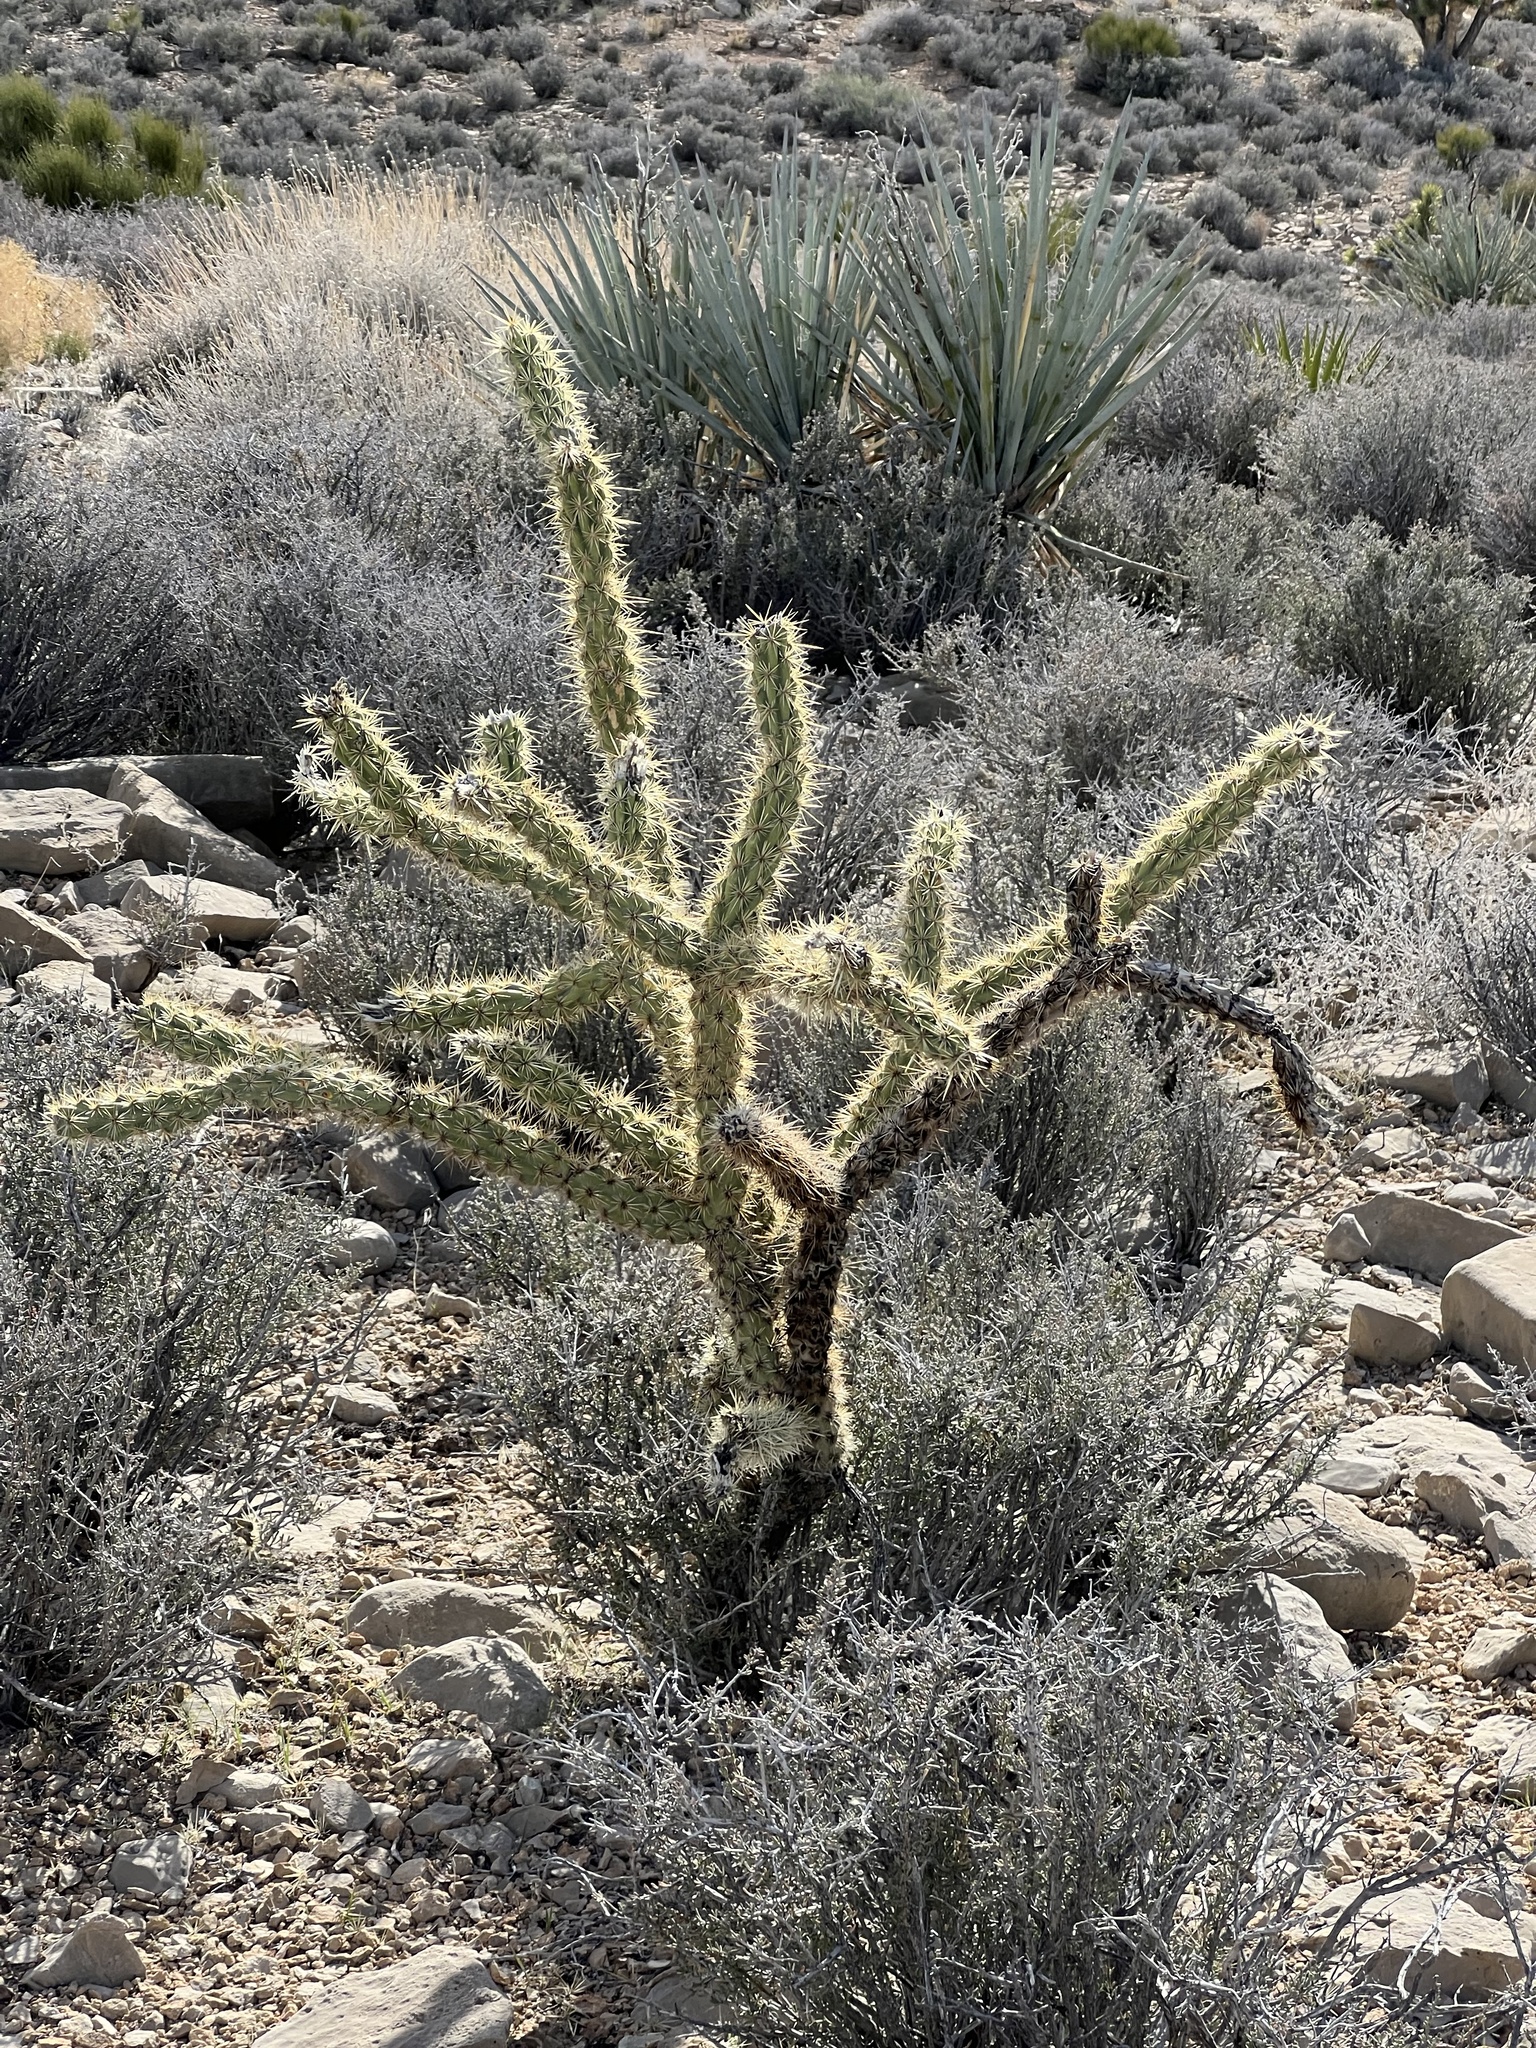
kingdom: Plantae
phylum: Tracheophyta
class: Magnoliopsida
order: Caryophyllales
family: Cactaceae
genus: Cylindropuntia
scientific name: Cylindropuntia acanthocarpa
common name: Buckhorn cholla
